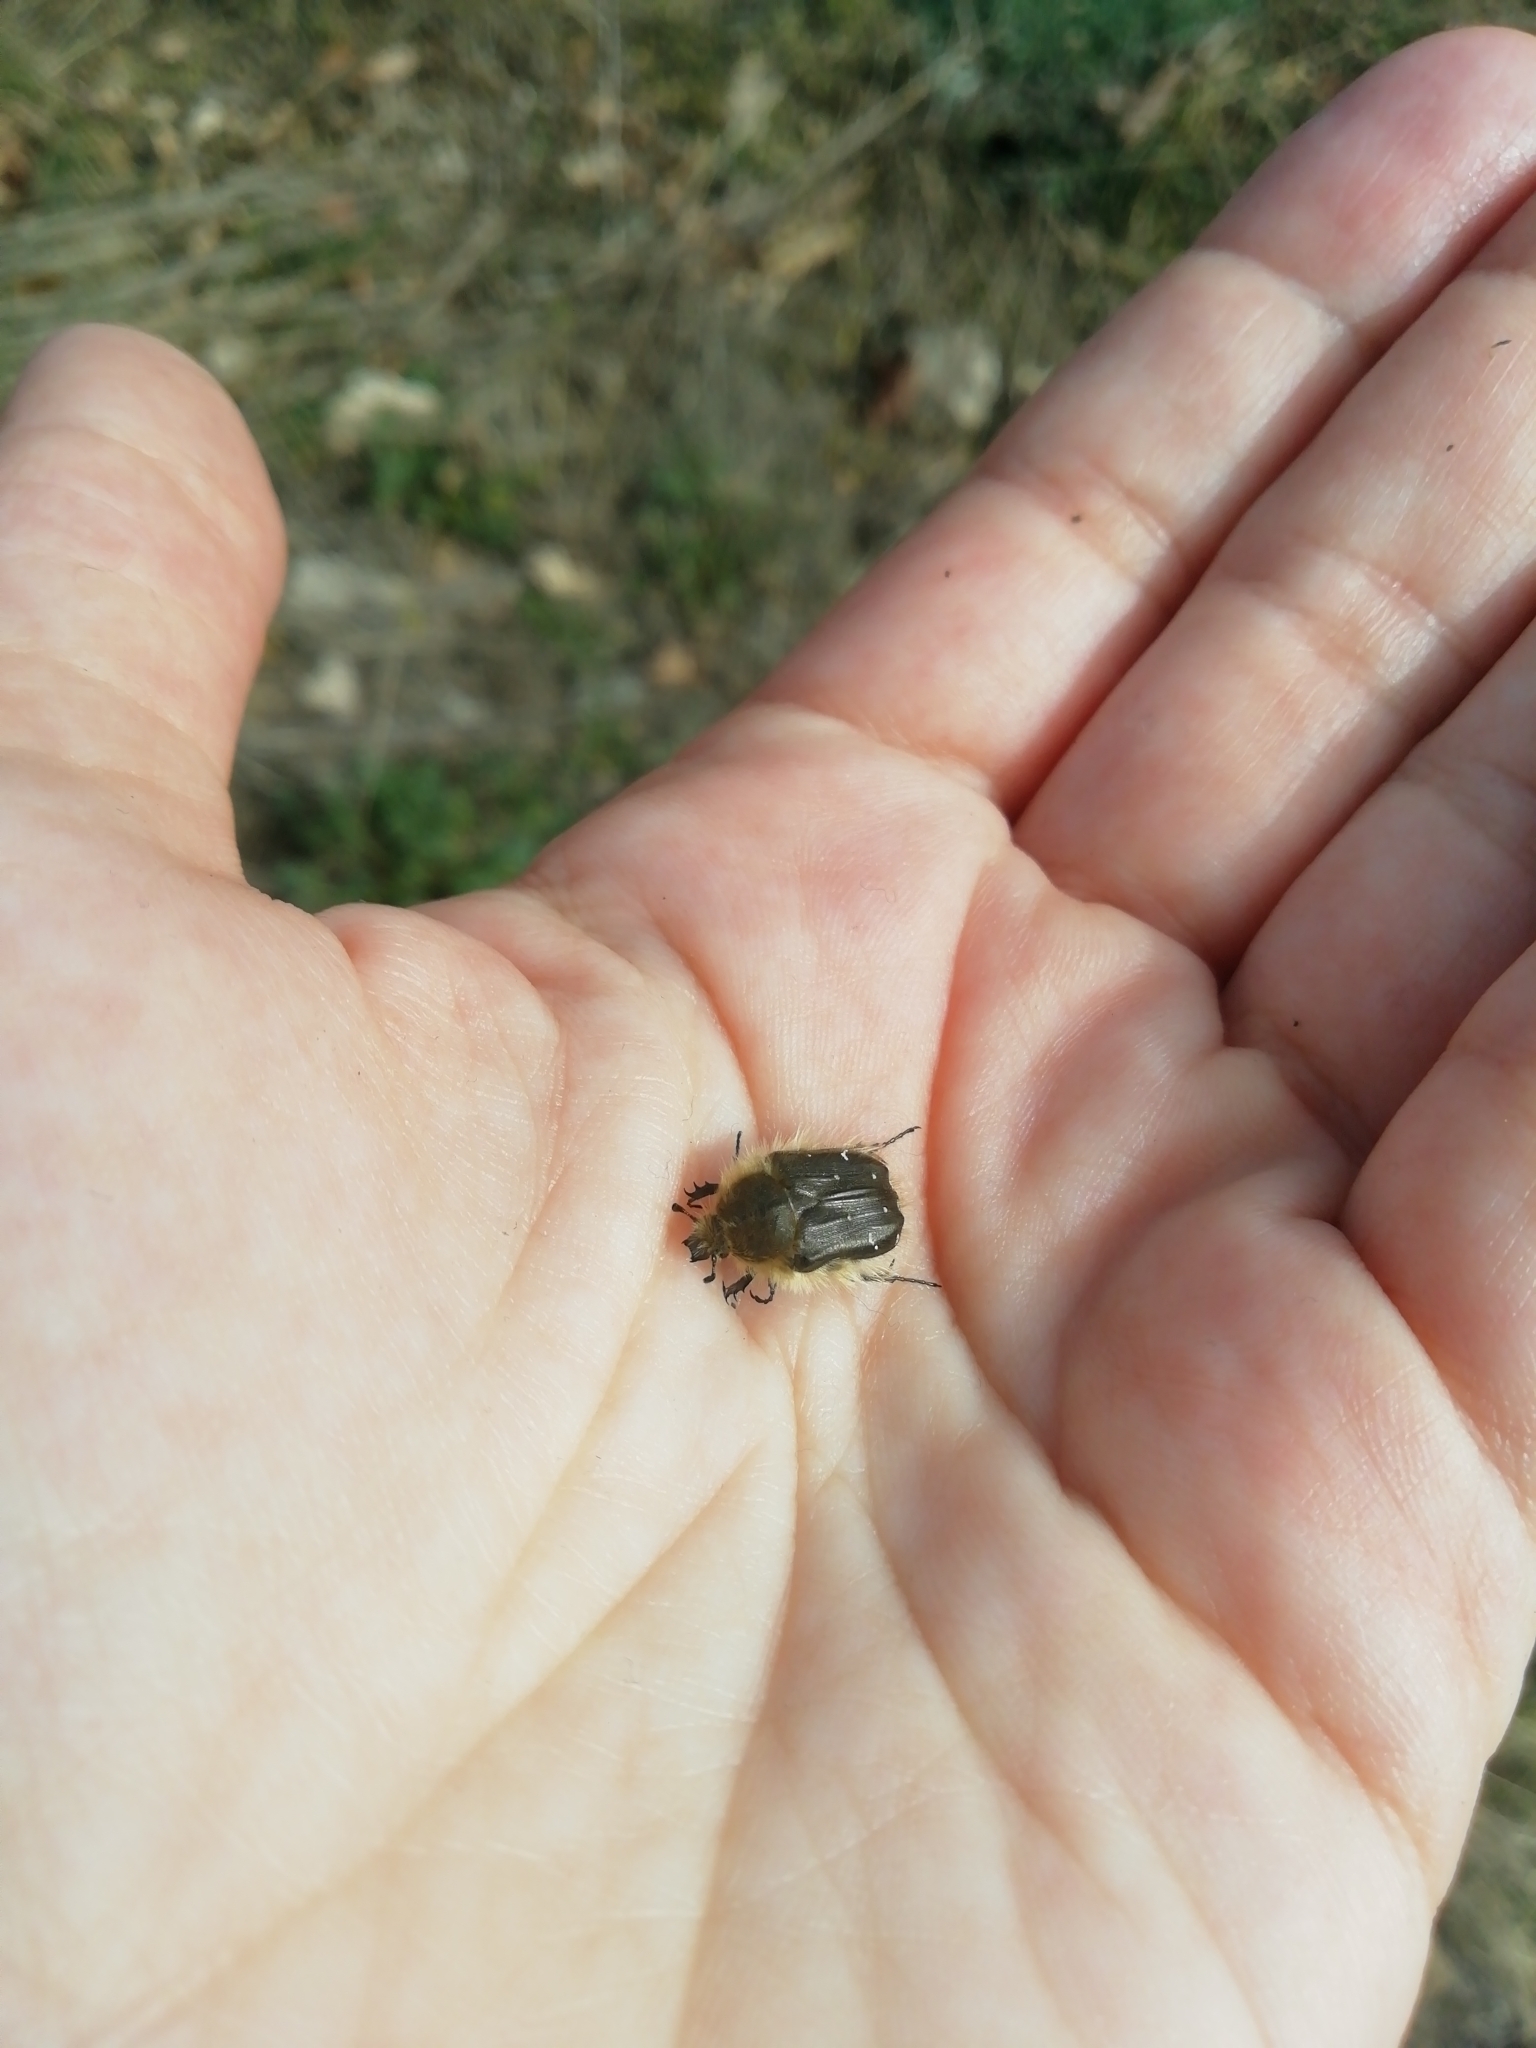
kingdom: Animalia
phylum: Arthropoda
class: Insecta
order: Coleoptera
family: Scarabaeidae
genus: Tropinota
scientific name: Tropinota hirta
